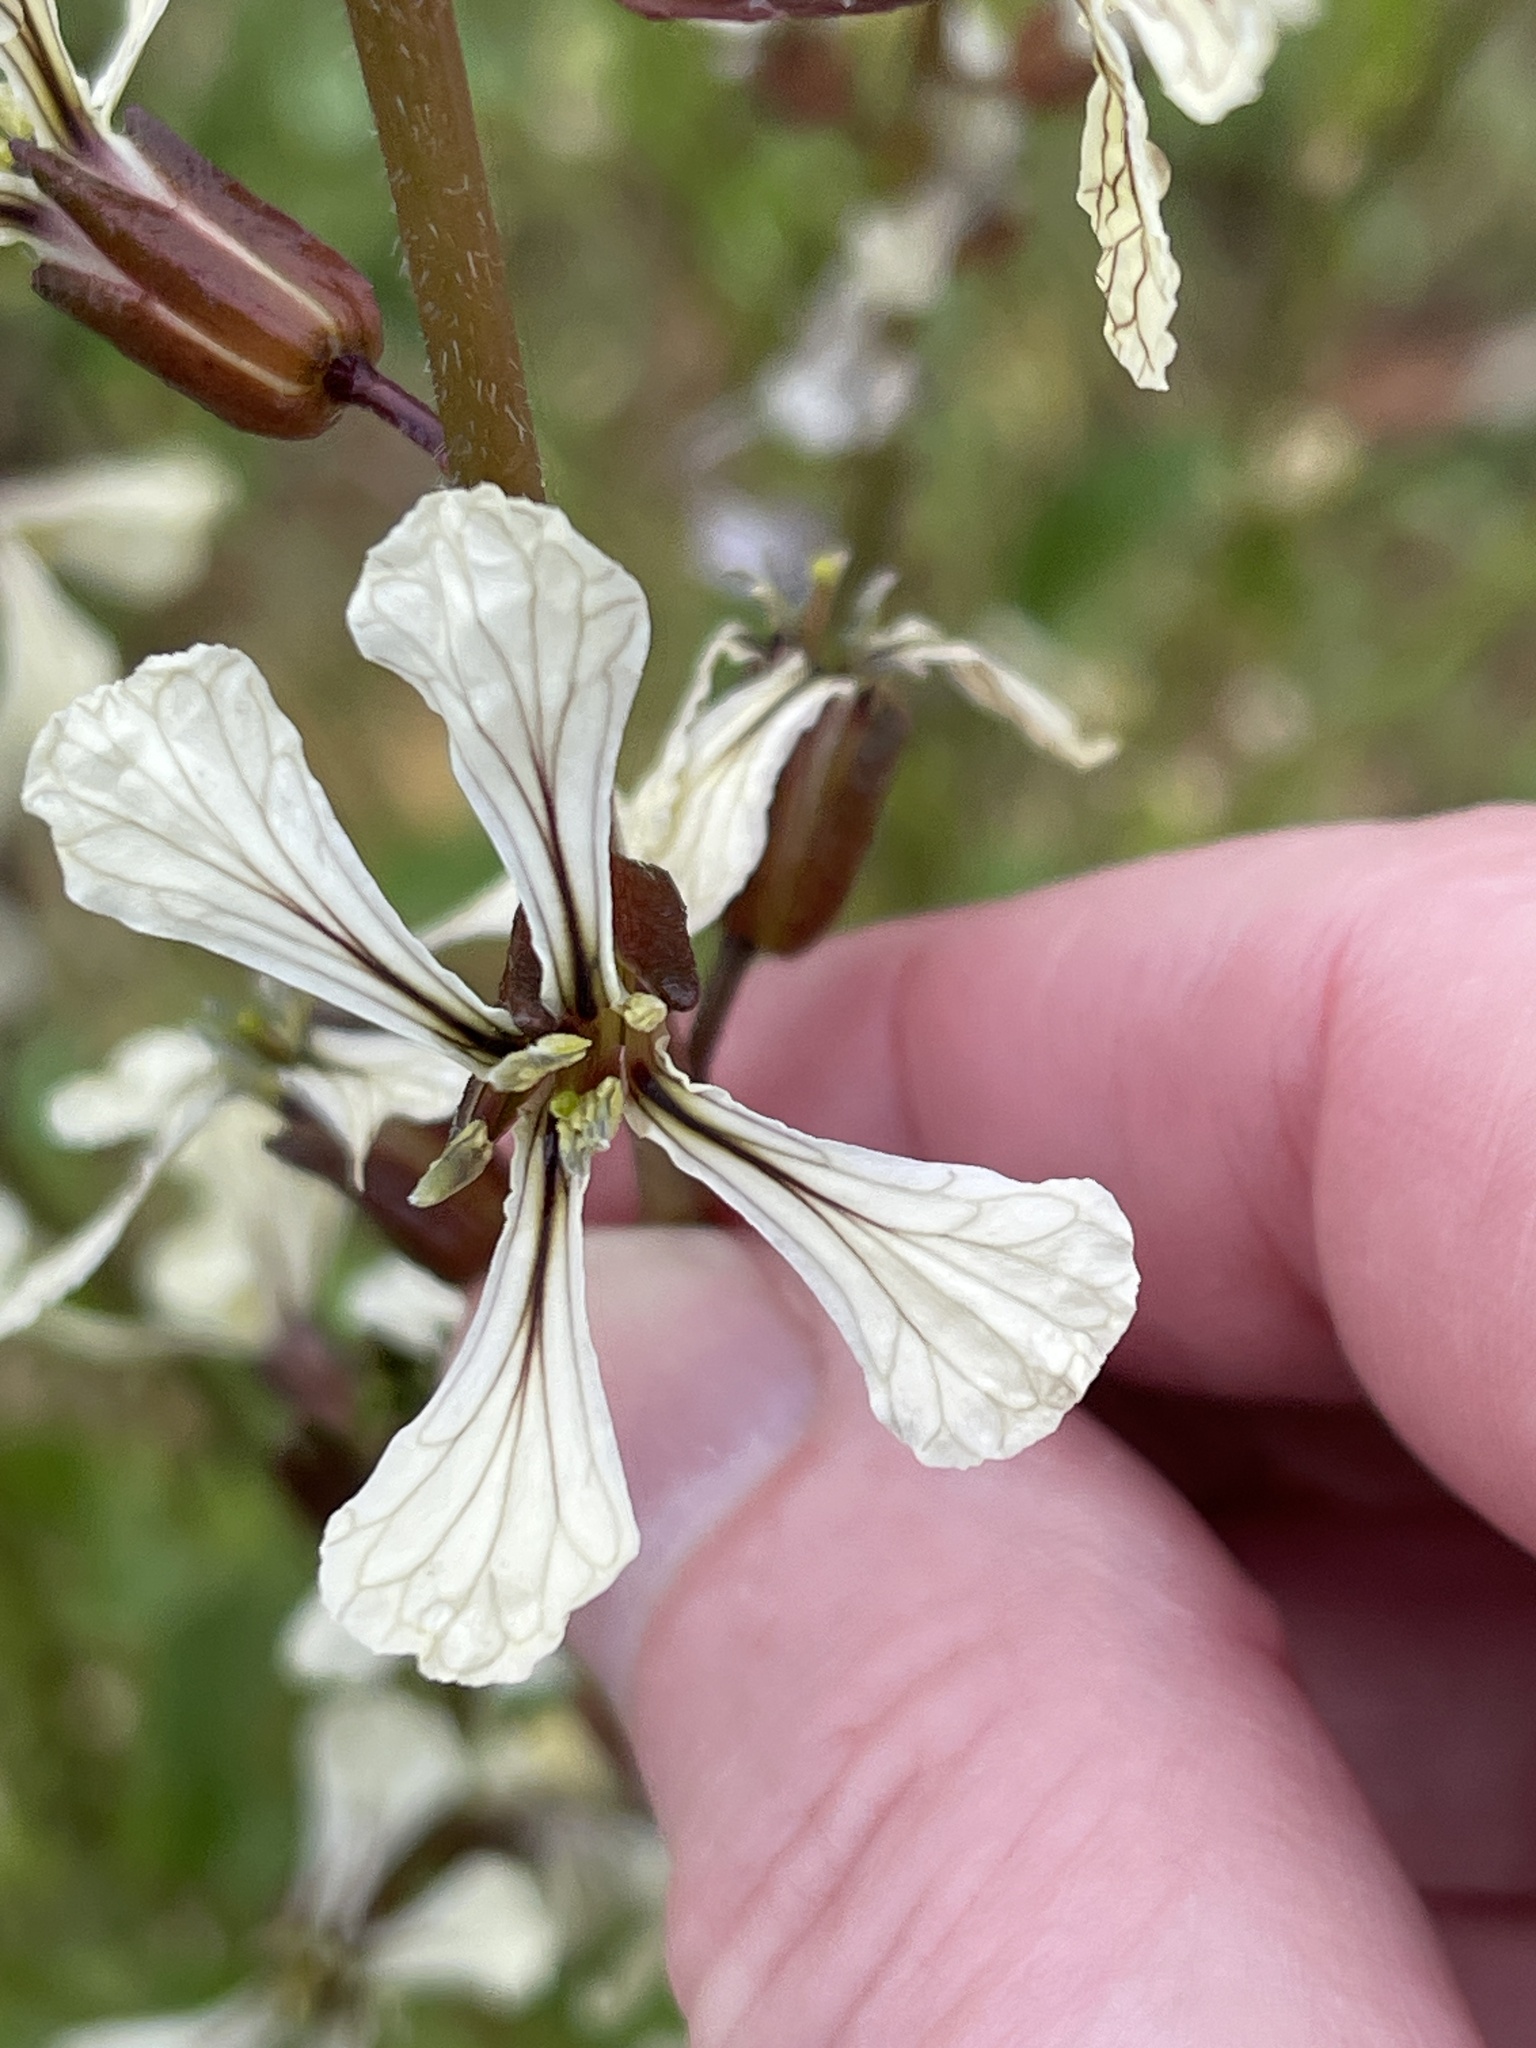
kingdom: Plantae
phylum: Tracheophyta
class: Magnoliopsida
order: Brassicales
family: Brassicaceae
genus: Eruca
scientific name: Eruca vesicaria
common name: Garden rocket
